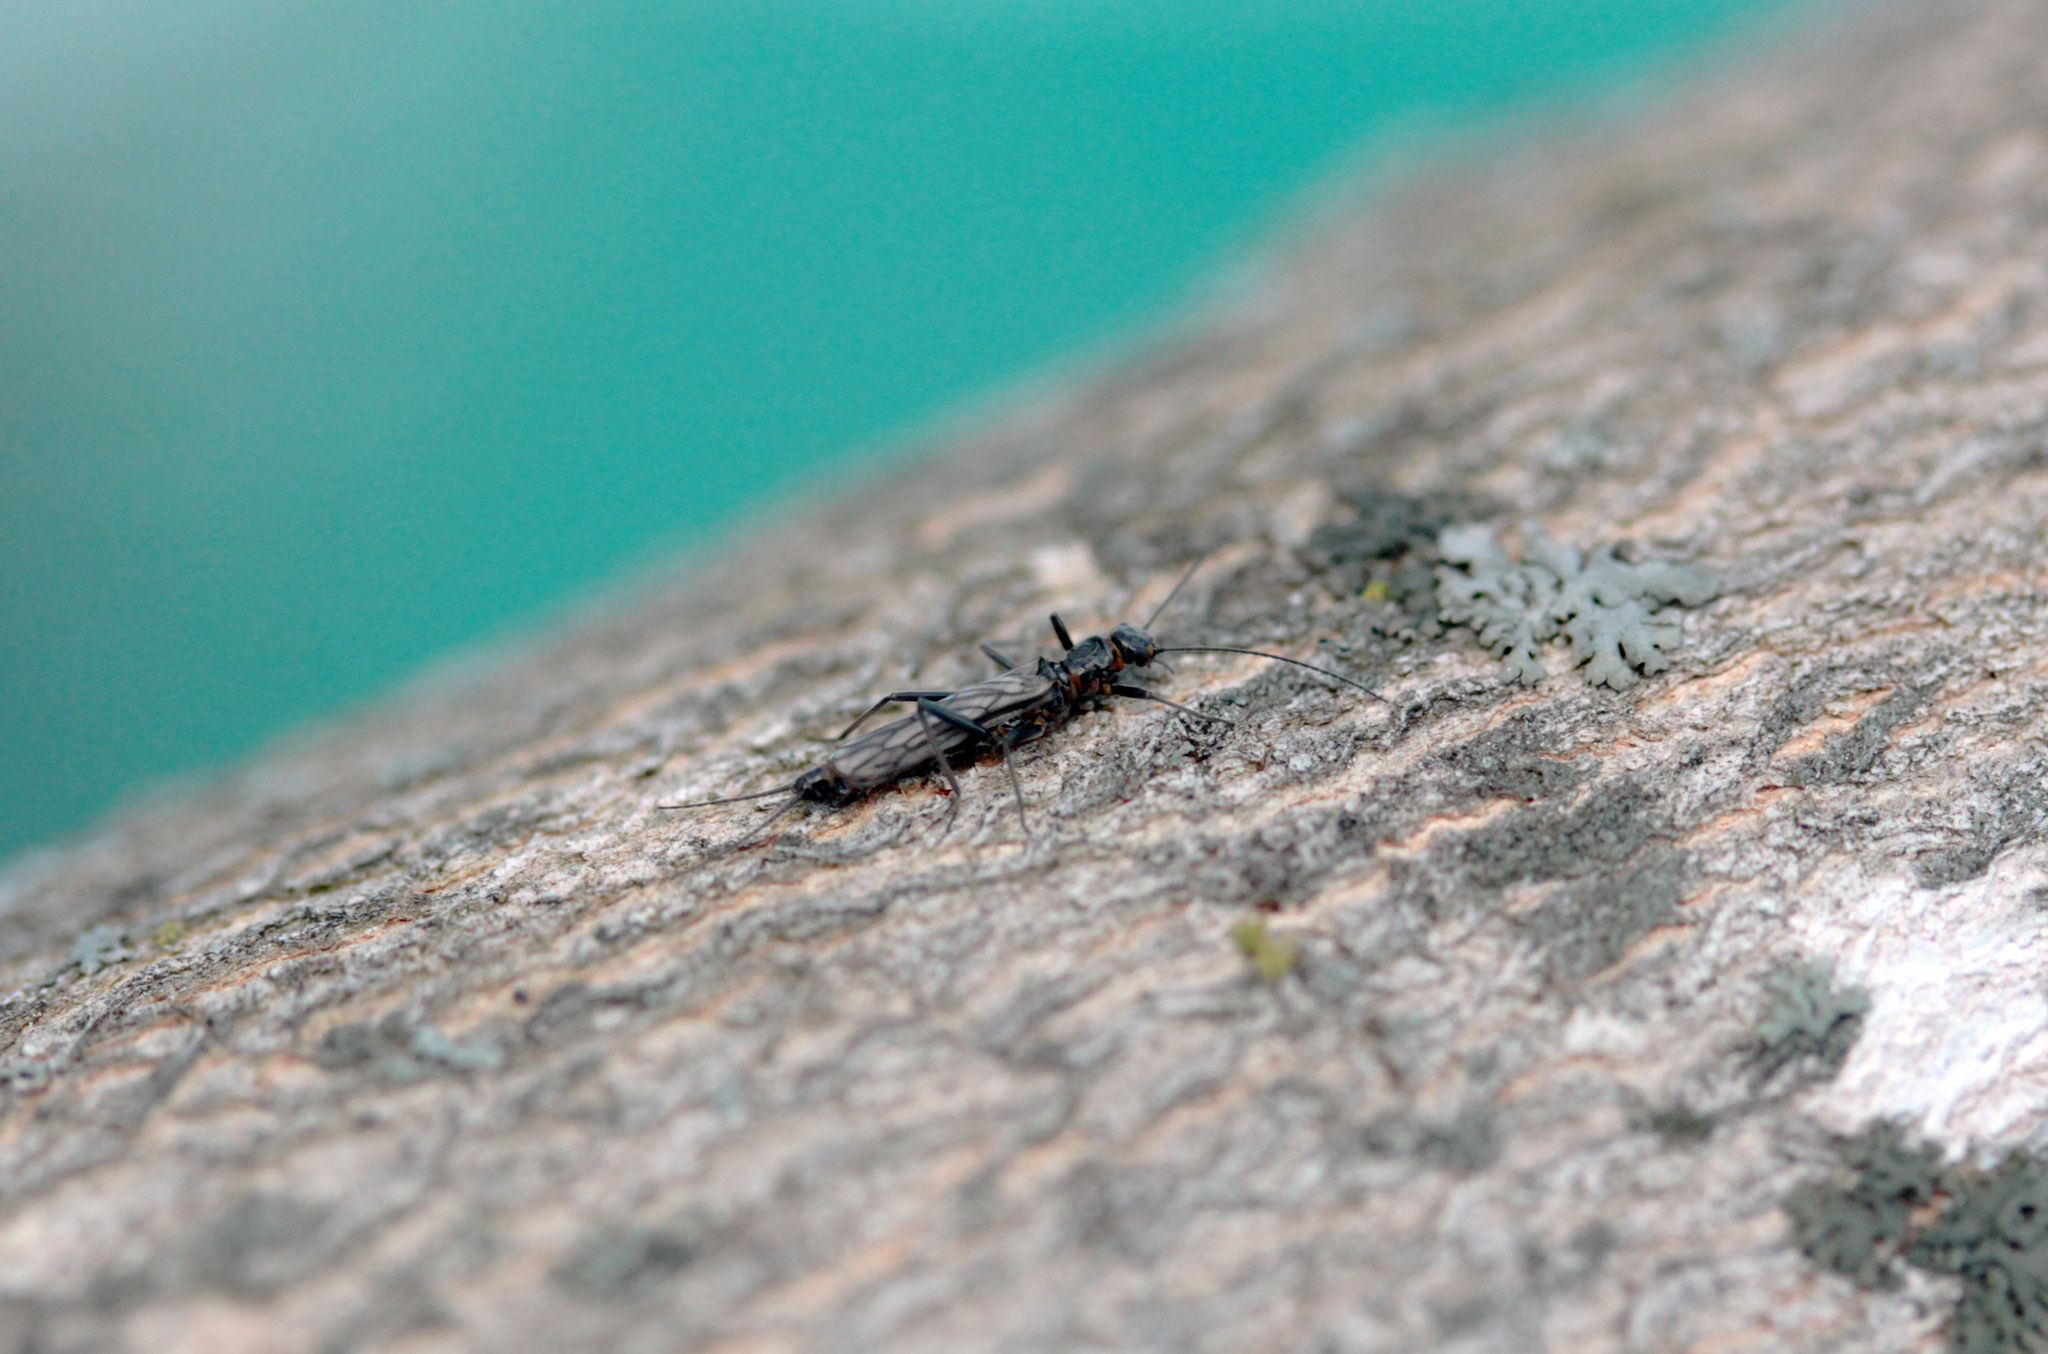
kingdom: Animalia
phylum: Arthropoda
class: Insecta
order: Plecoptera
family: Capniidae
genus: Allocapnia
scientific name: Allocapnia
